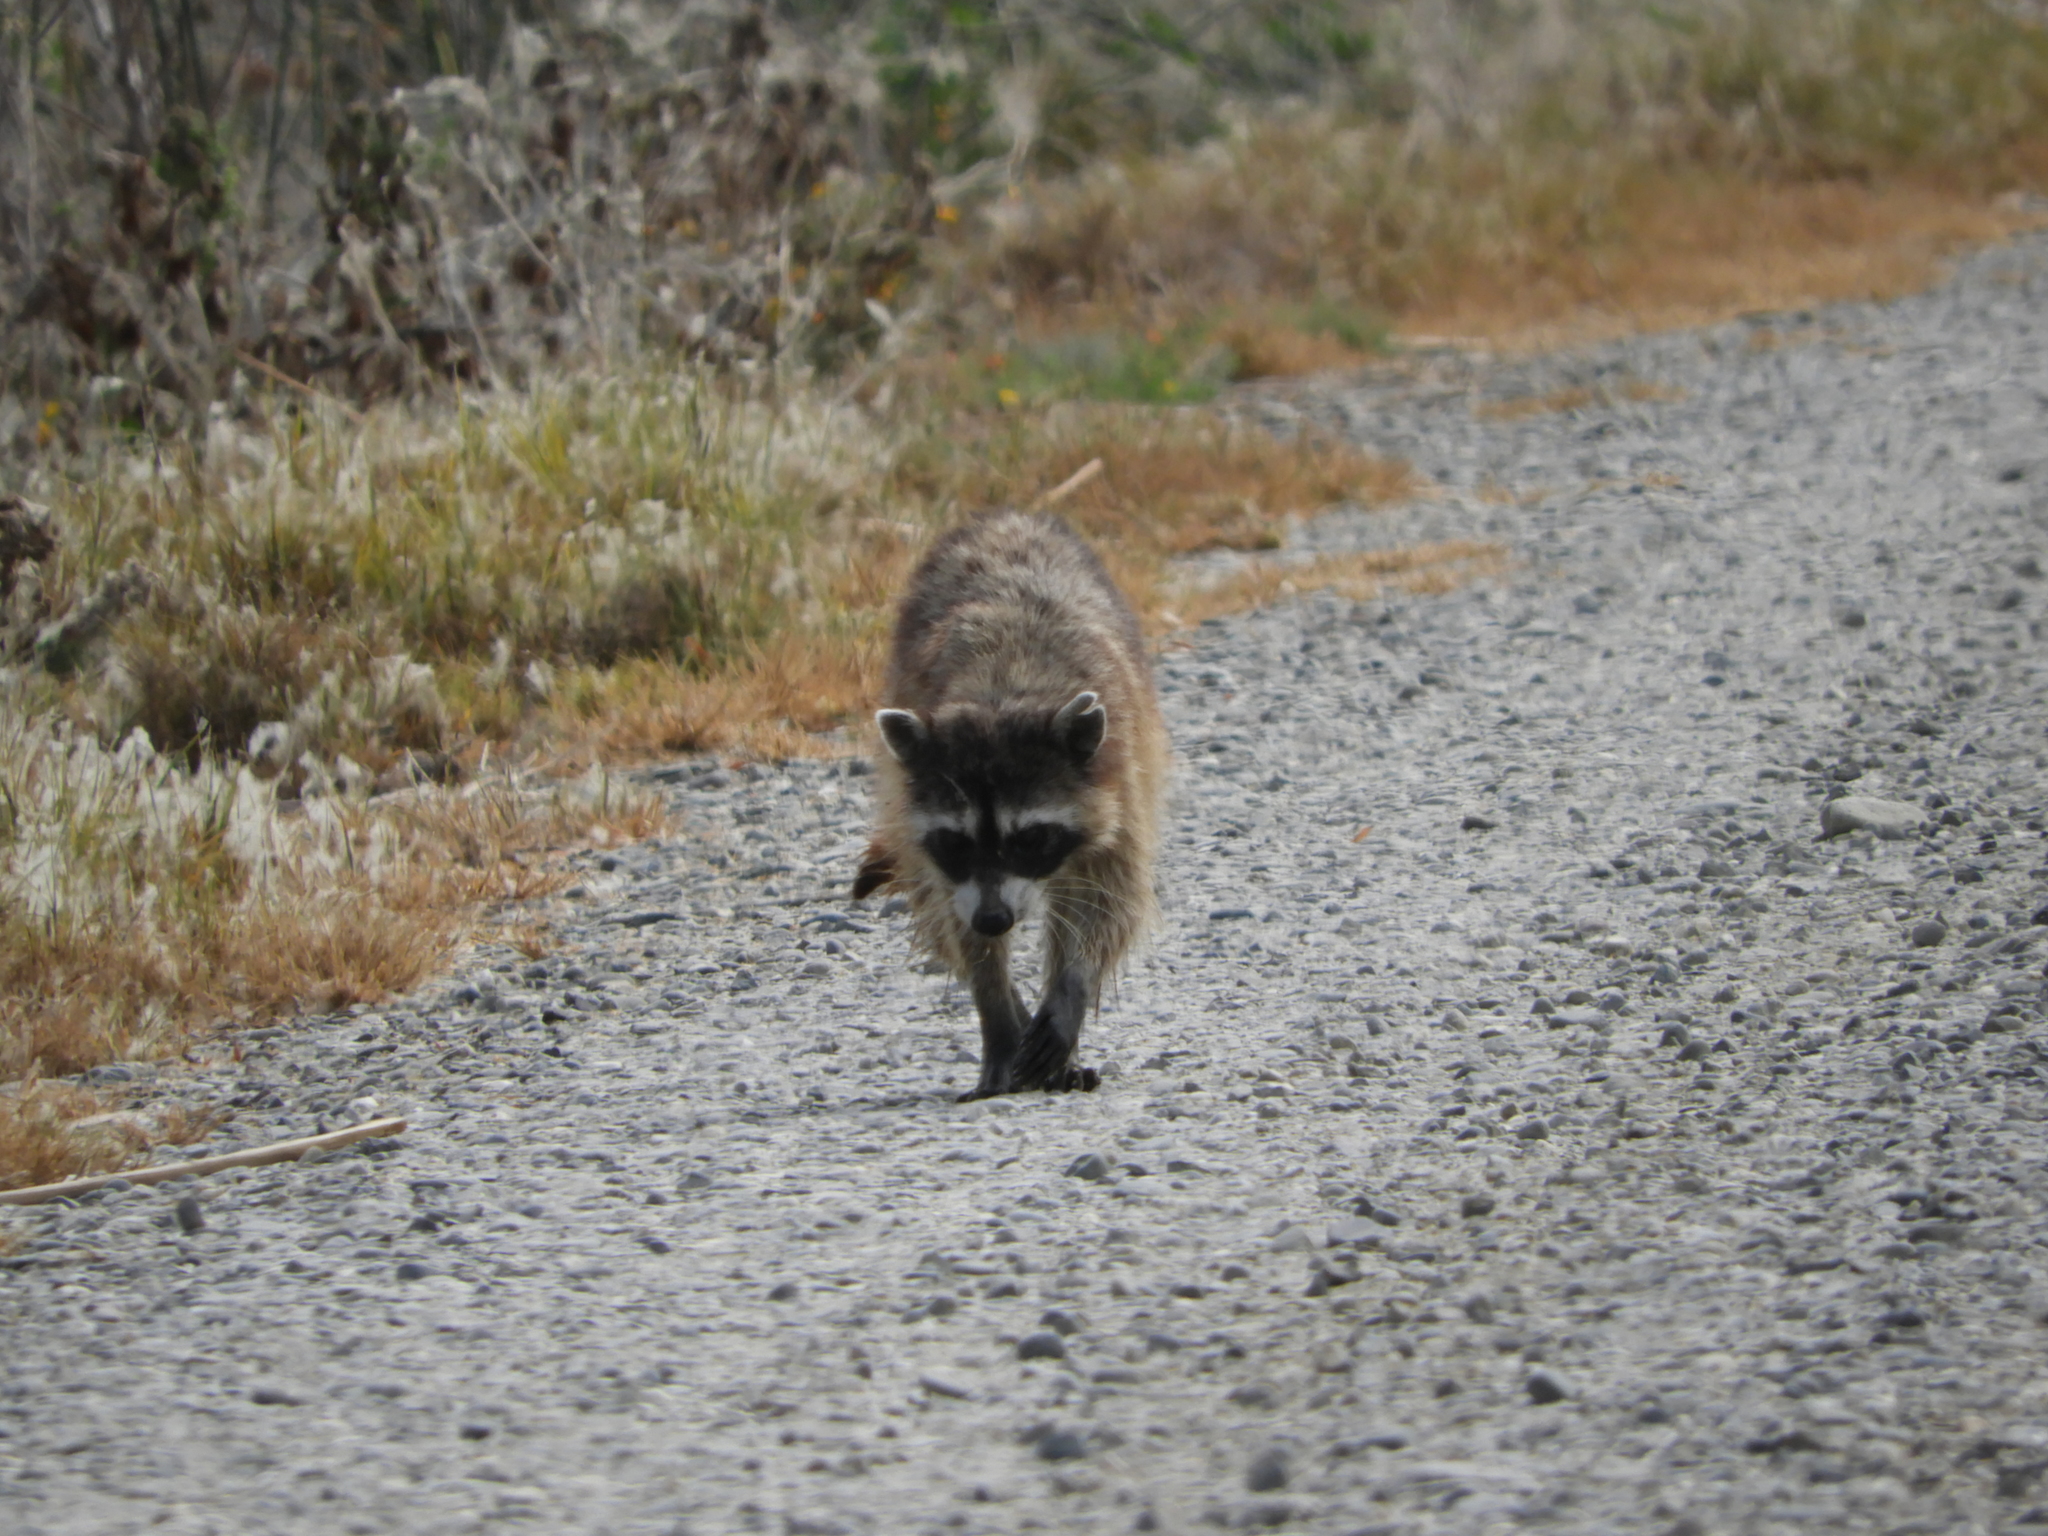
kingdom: Animalia
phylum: Chordata
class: Mammalia
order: Carnivora
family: Procyonidae
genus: Procyon
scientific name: Procyon lotor
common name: Raccoon
